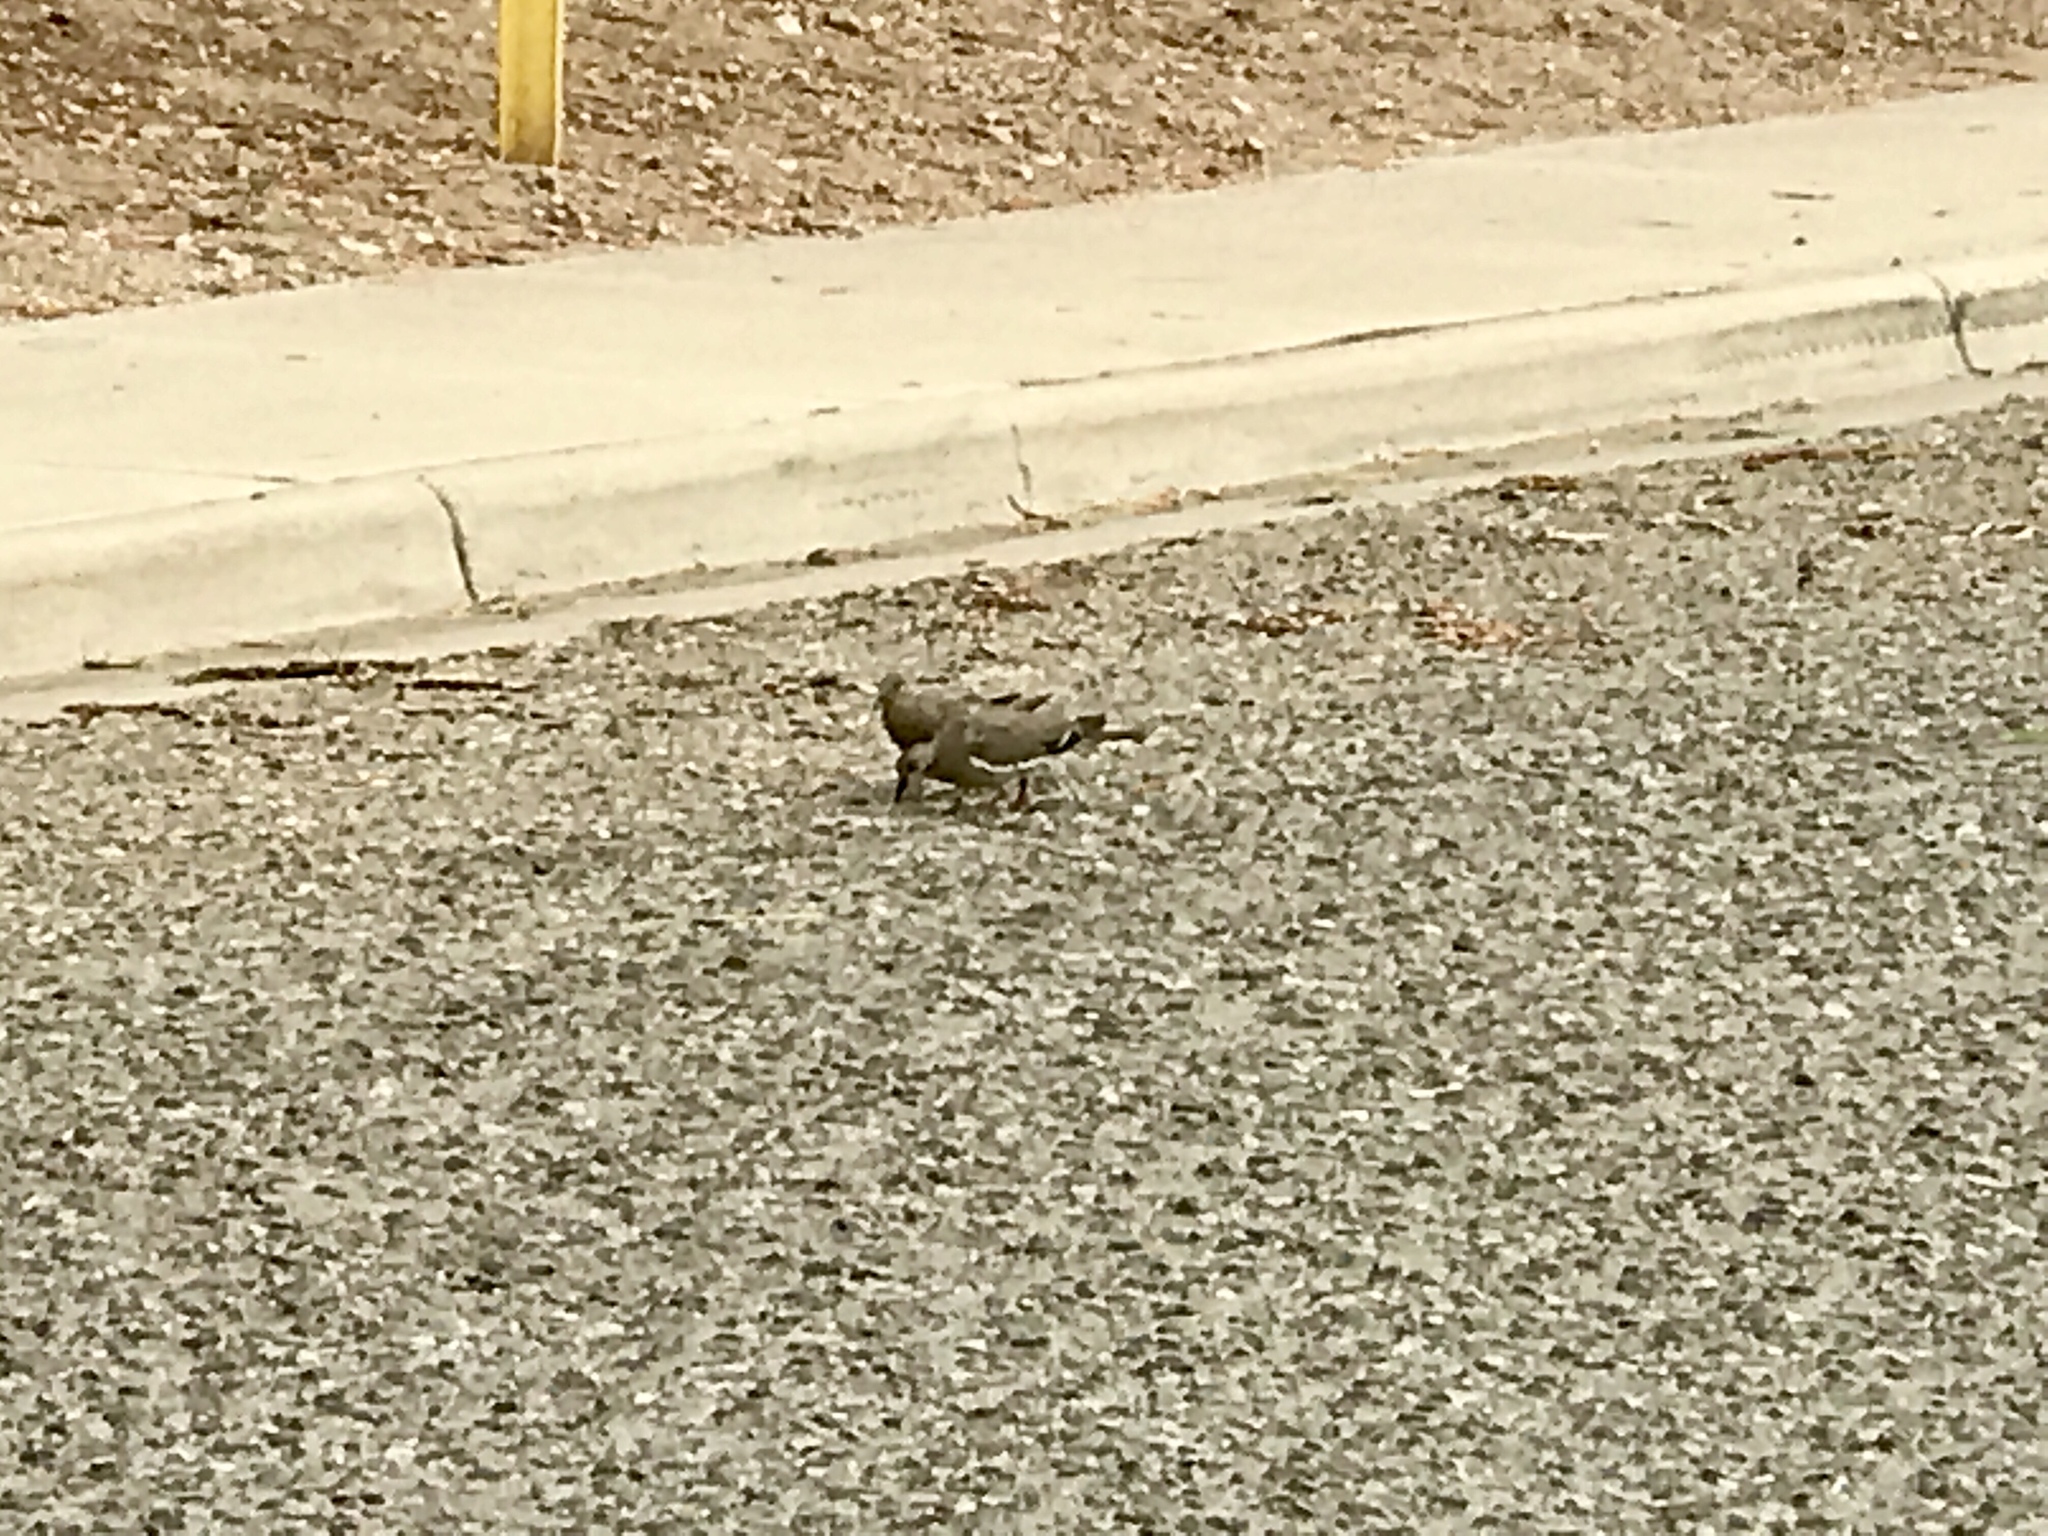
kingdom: Animalia
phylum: Chordata
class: Aves
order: Columbiformes
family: Columbidae
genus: Zenaida
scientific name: Zenaida asiatica
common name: White-winged dove
